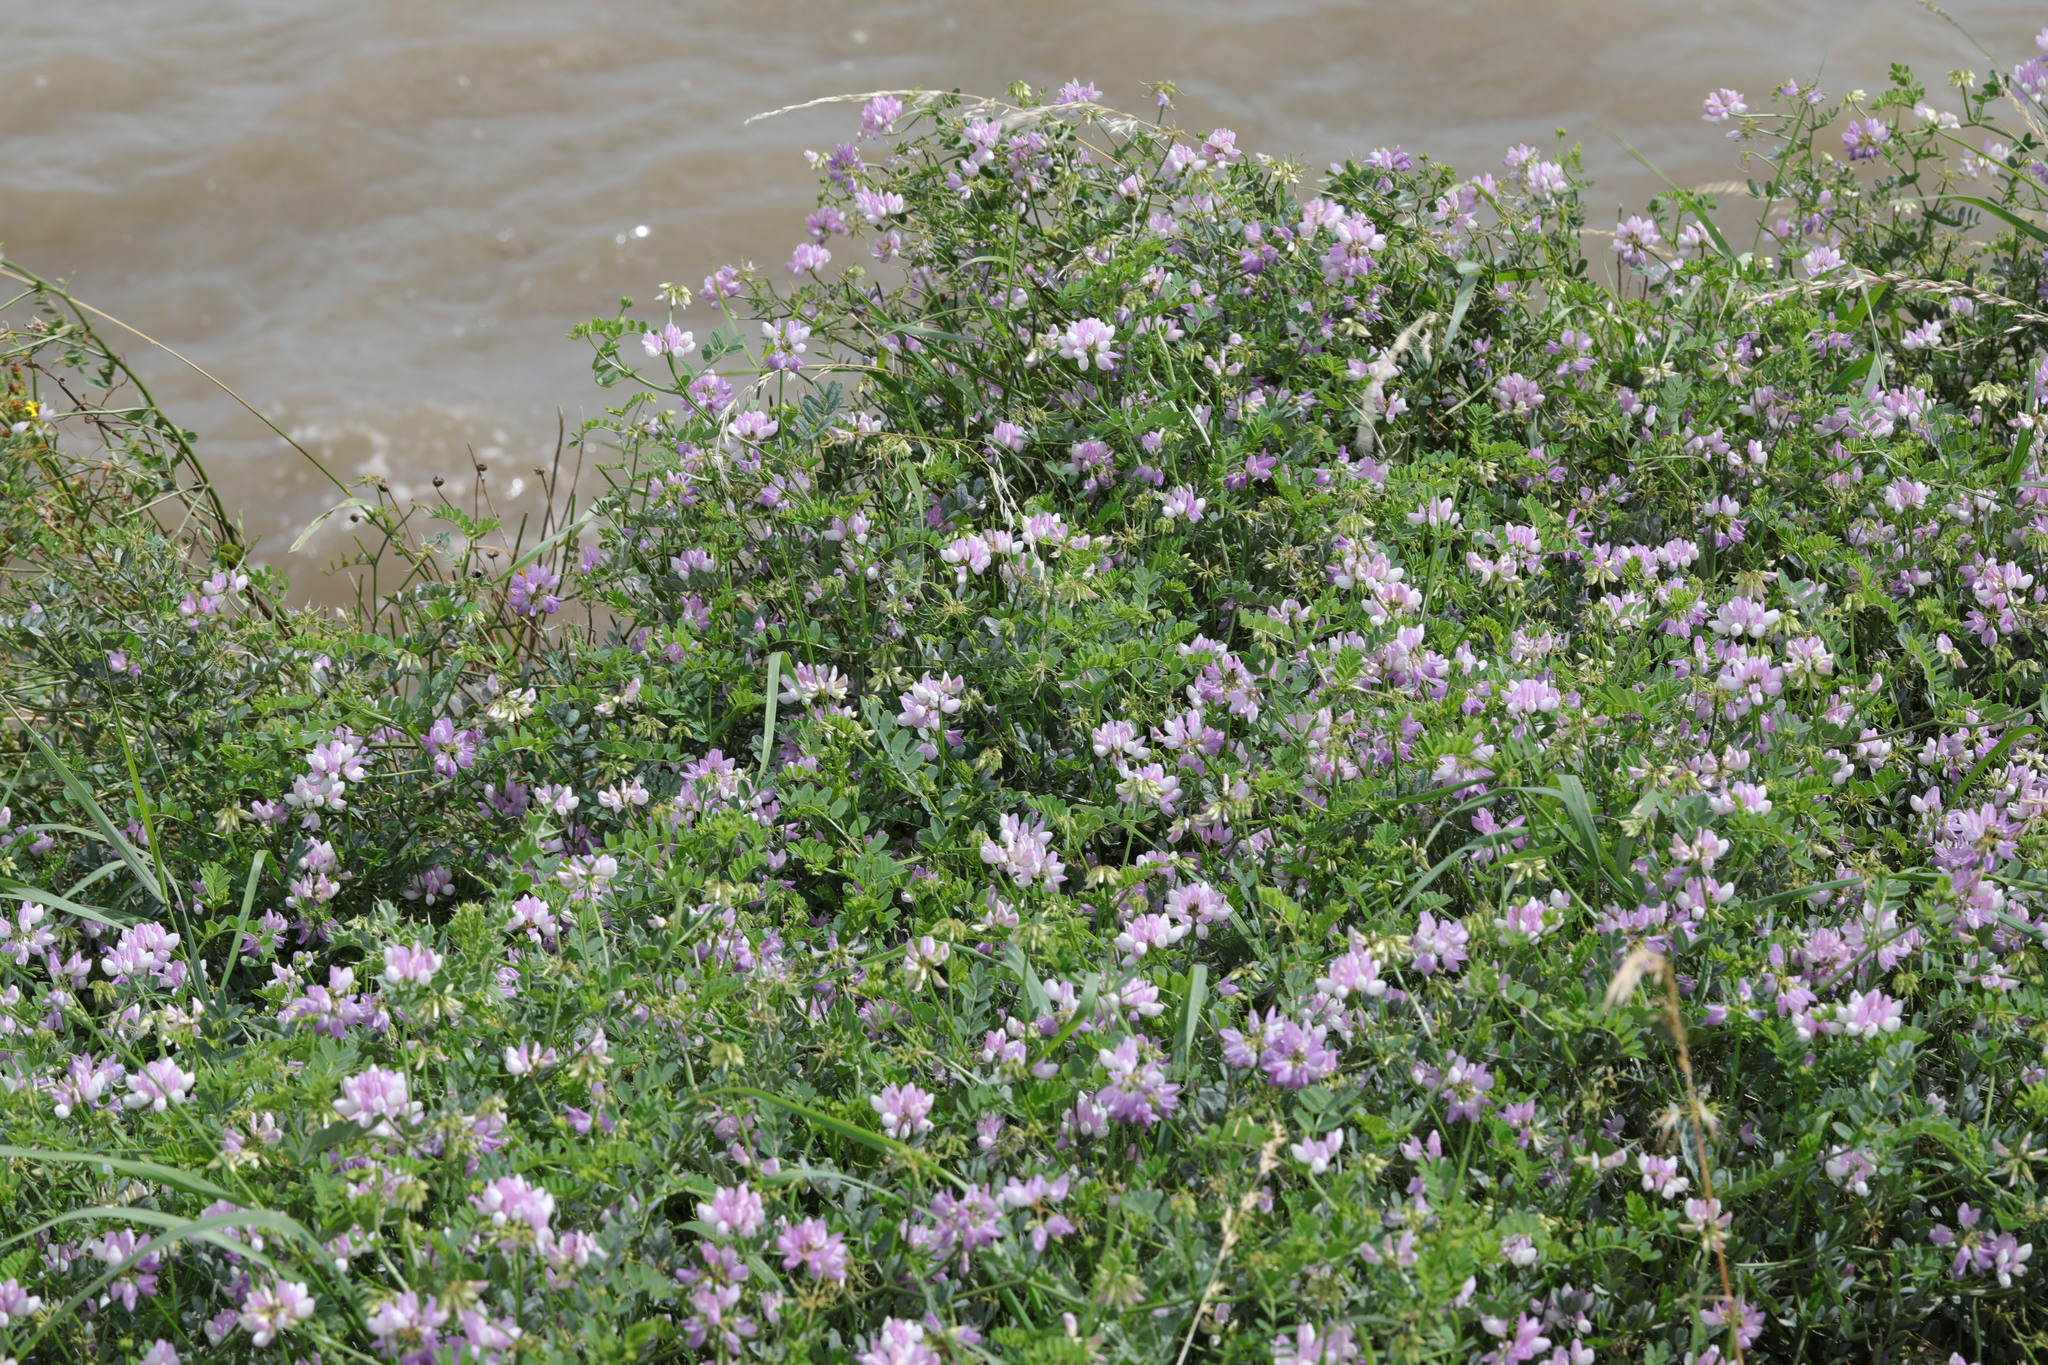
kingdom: Plantae
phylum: Tracheophyta
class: Magnoliopsida
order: Fabales
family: Fabaceae
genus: Coronilla
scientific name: Coronilla varia
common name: Crownvetch
